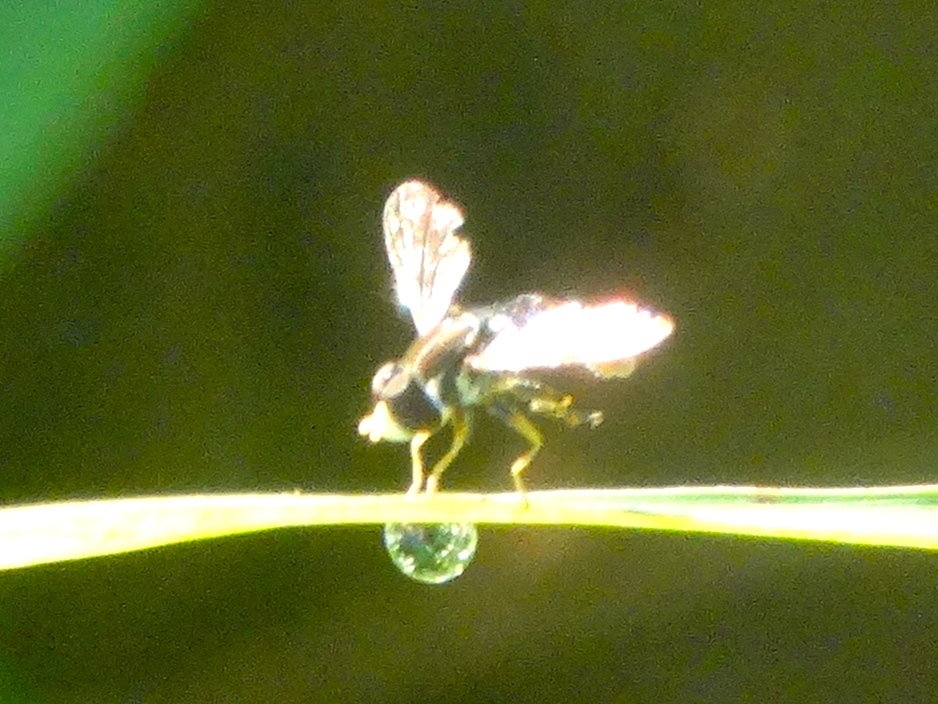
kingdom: Animalia
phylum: Arthropoda
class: Insecta
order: Diptera
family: Syrphidae
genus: Toxomerus
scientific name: Toxomerus
